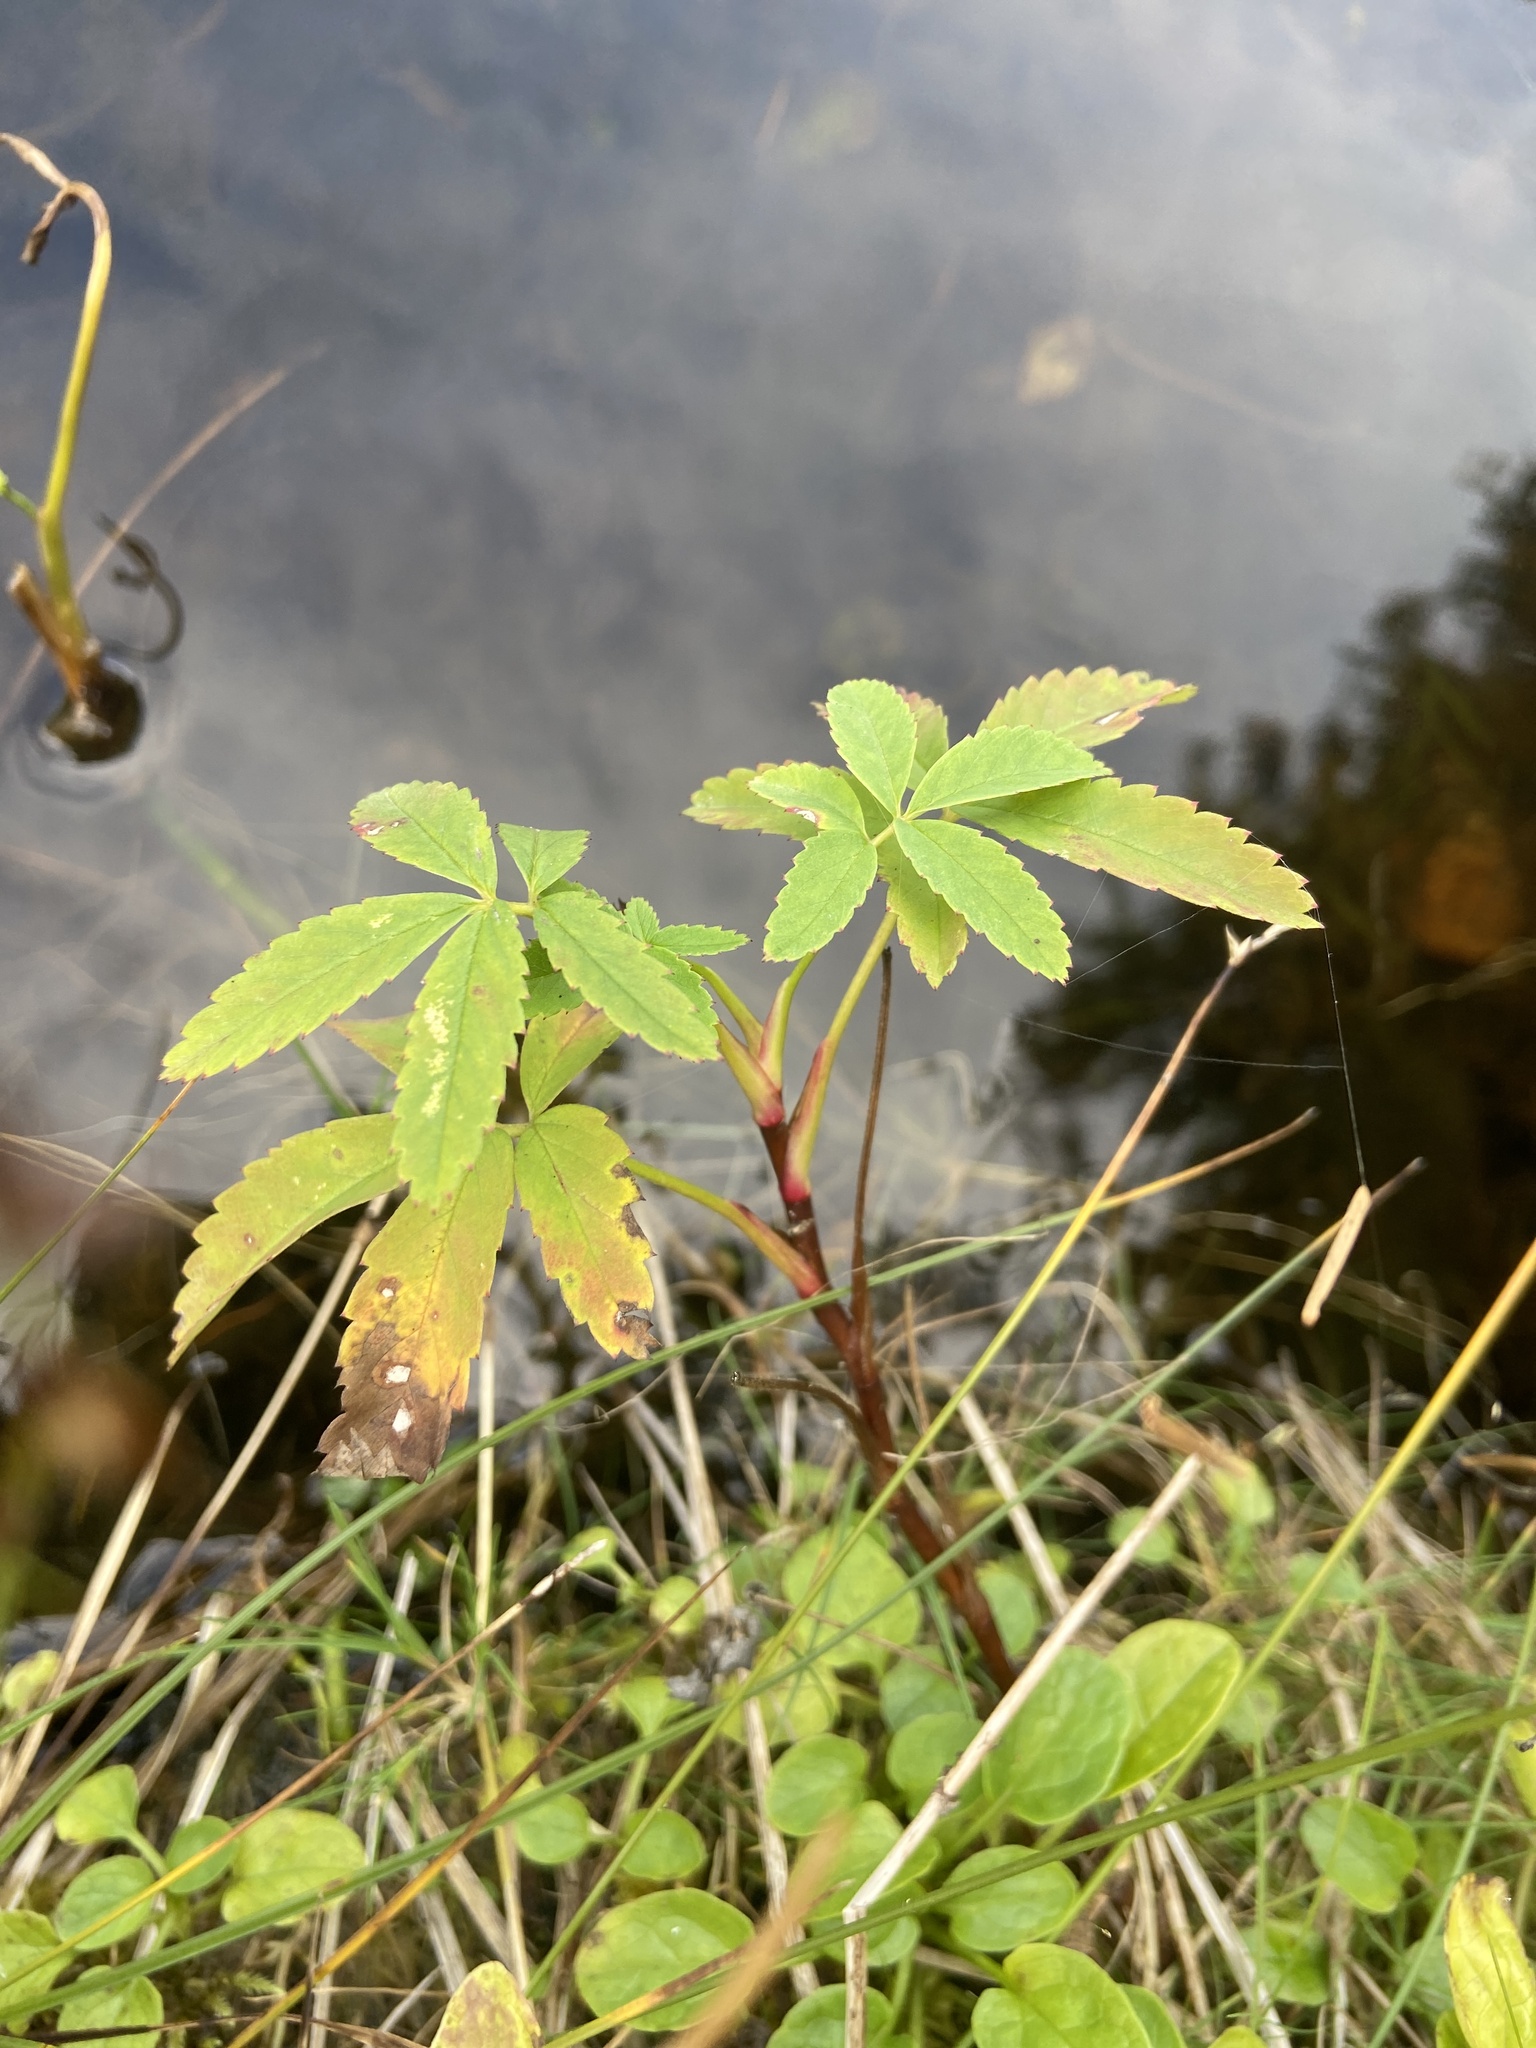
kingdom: Plantae
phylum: Tracheophyta
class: Magnoliopsida
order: Rosales
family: Rosaceae
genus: Comarum
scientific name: Comarum palustre
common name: Marsh cinquefoil
